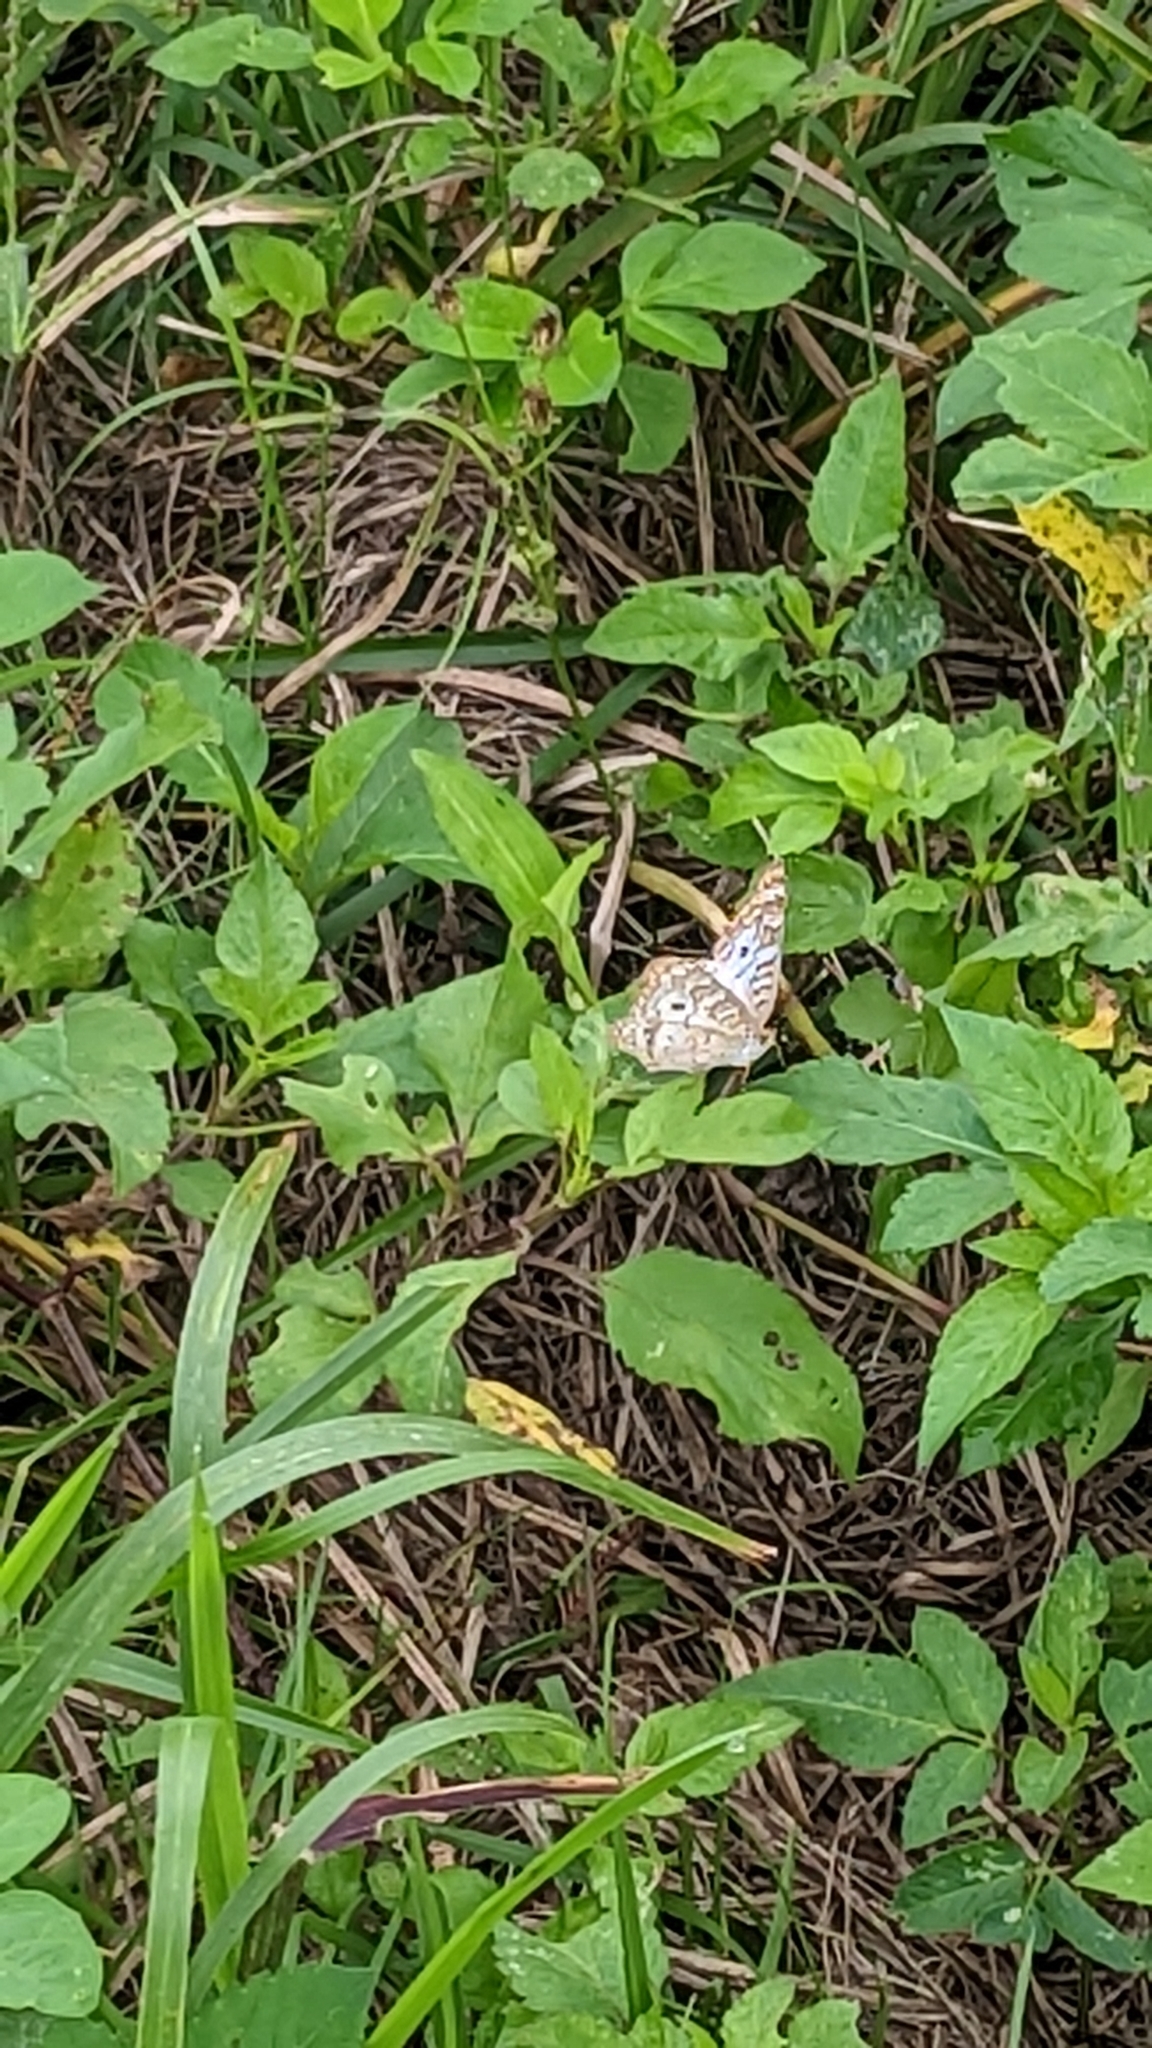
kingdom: Animalia
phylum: Arthropoda
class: Insecta
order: Lepidoptera
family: Nymphalidae
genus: Anartia
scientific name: Anartia jatrophae
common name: White peacock
